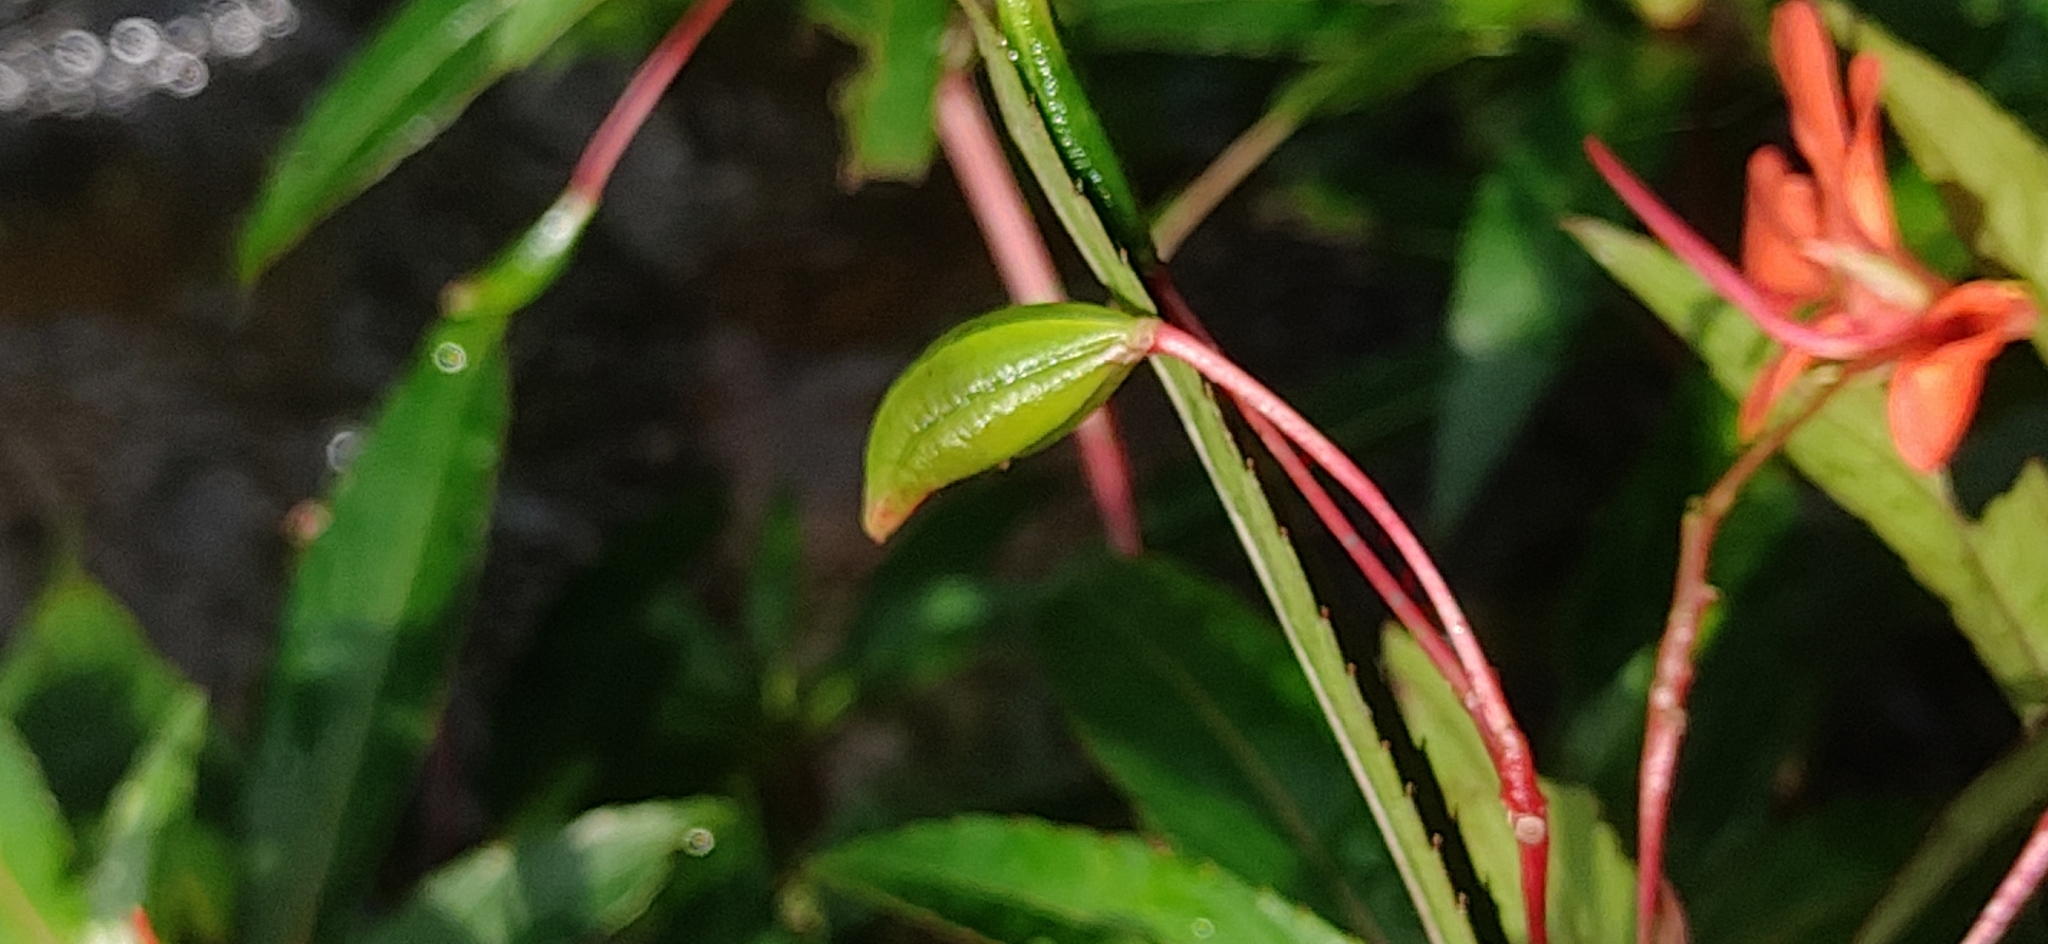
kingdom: Plantae
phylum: Tracheophyta
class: Magnoliopsida
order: Ericales
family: Balsaminaceae
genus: Impatiens
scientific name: Impatiens verticillata
